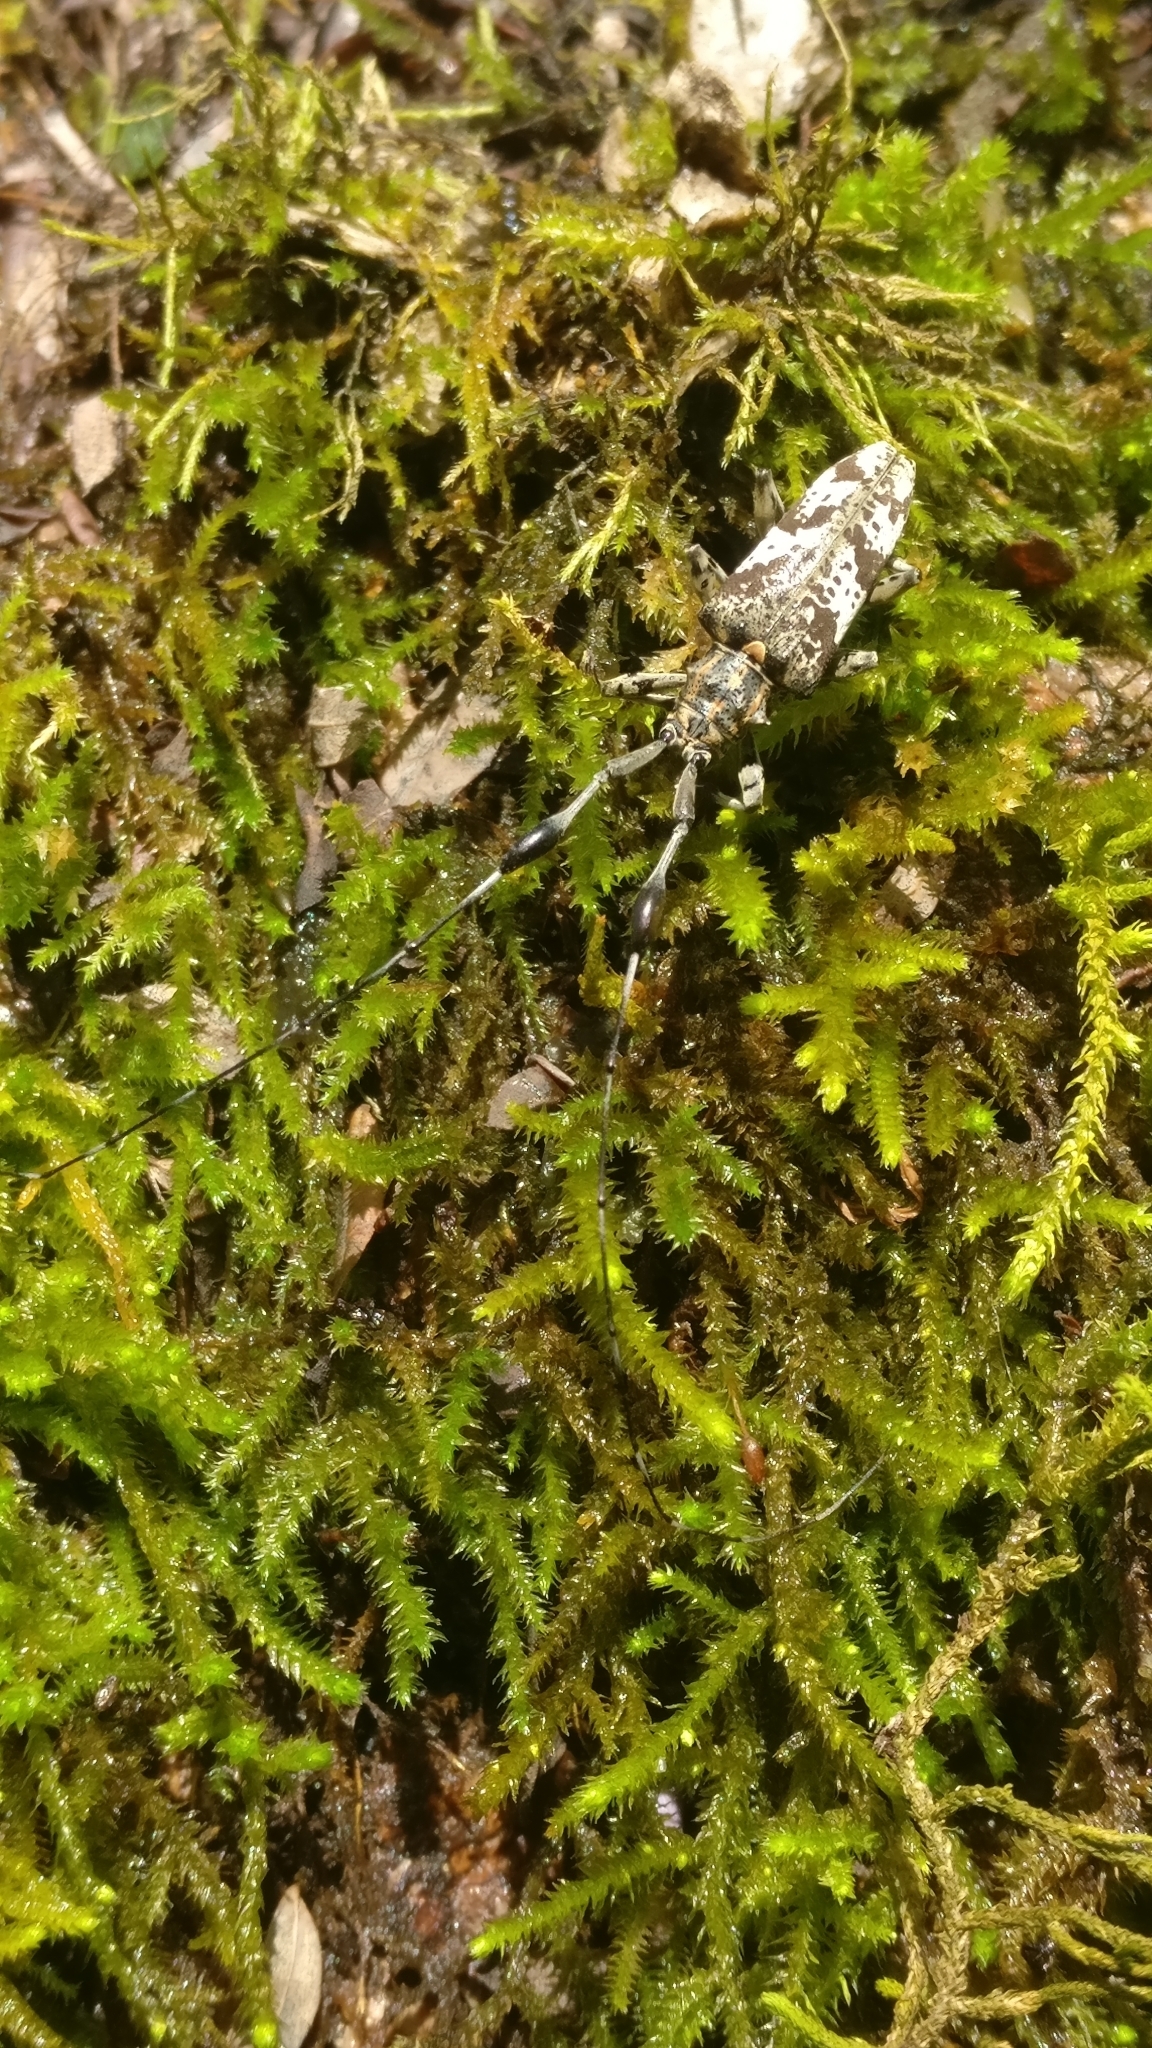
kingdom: Animalia
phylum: Arthropoda
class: Insecta
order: Coleoptera
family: Cerambycidae
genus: Rhodopina
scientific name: Rhodopina quadrituberculata
